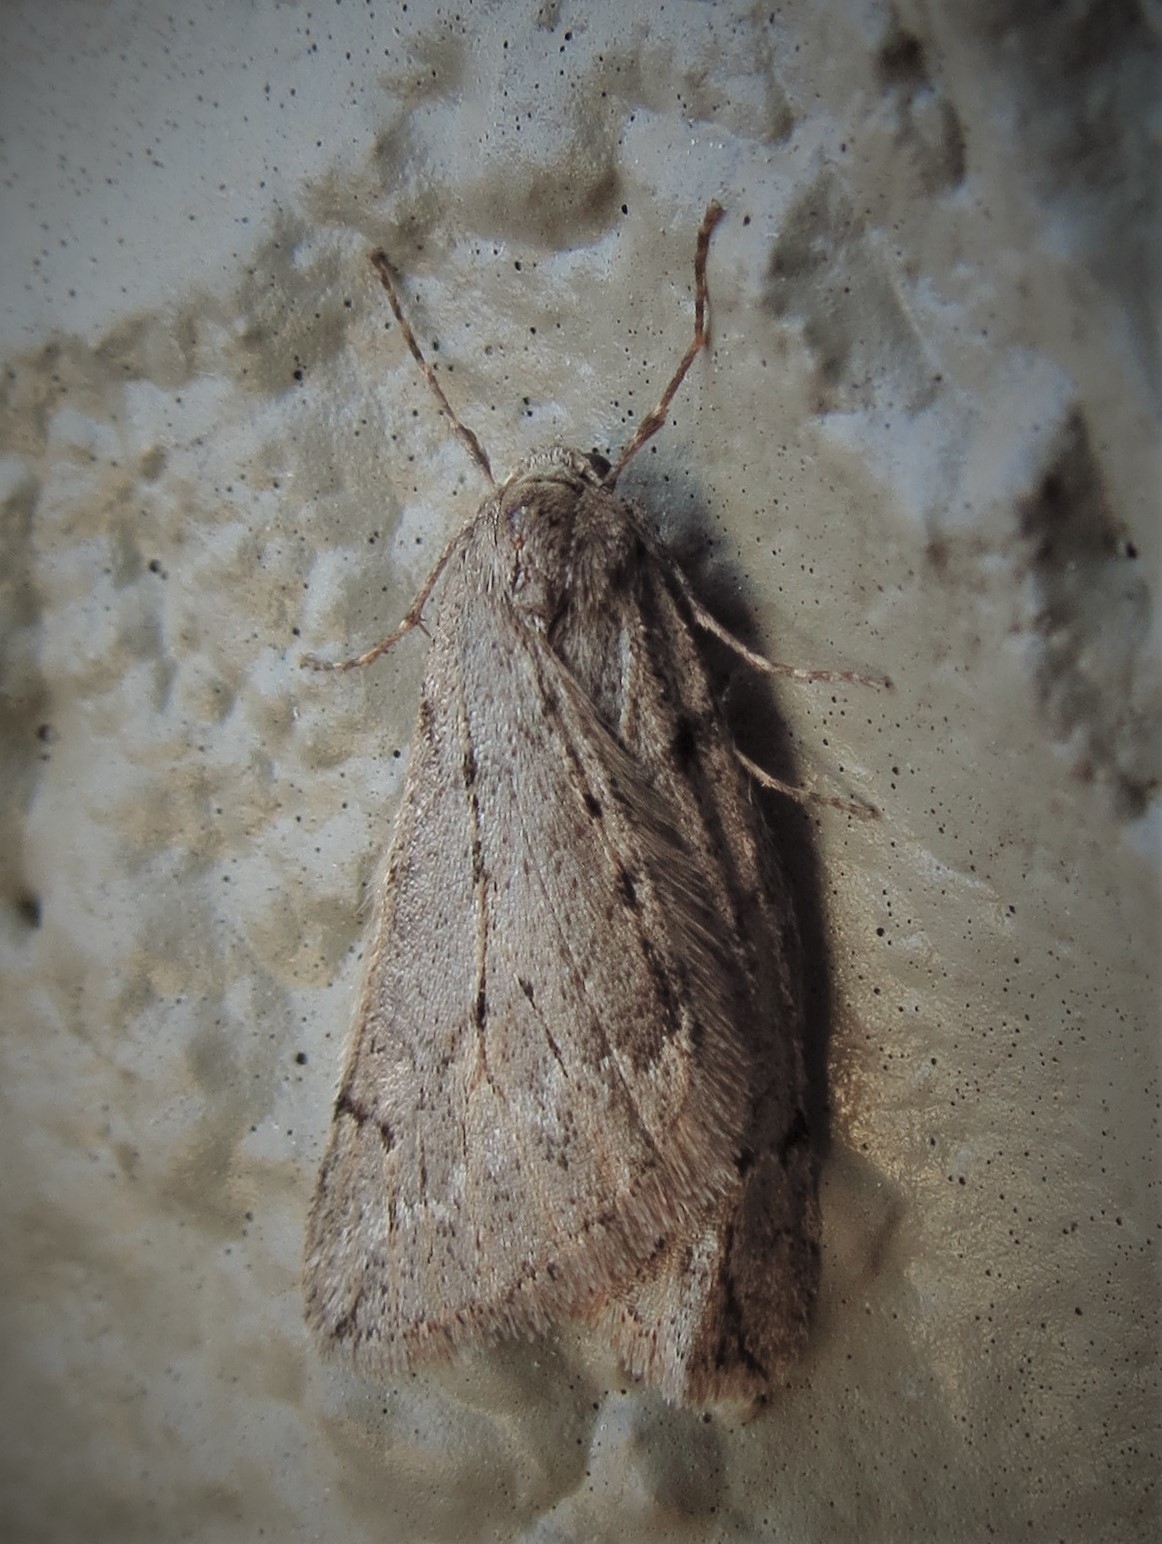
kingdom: Animalia
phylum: Arthropoda
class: Insecta
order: Lepidoptera
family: Geometridae
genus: Paleacrita
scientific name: Paleacrita vernata
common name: Spring cankerworm
